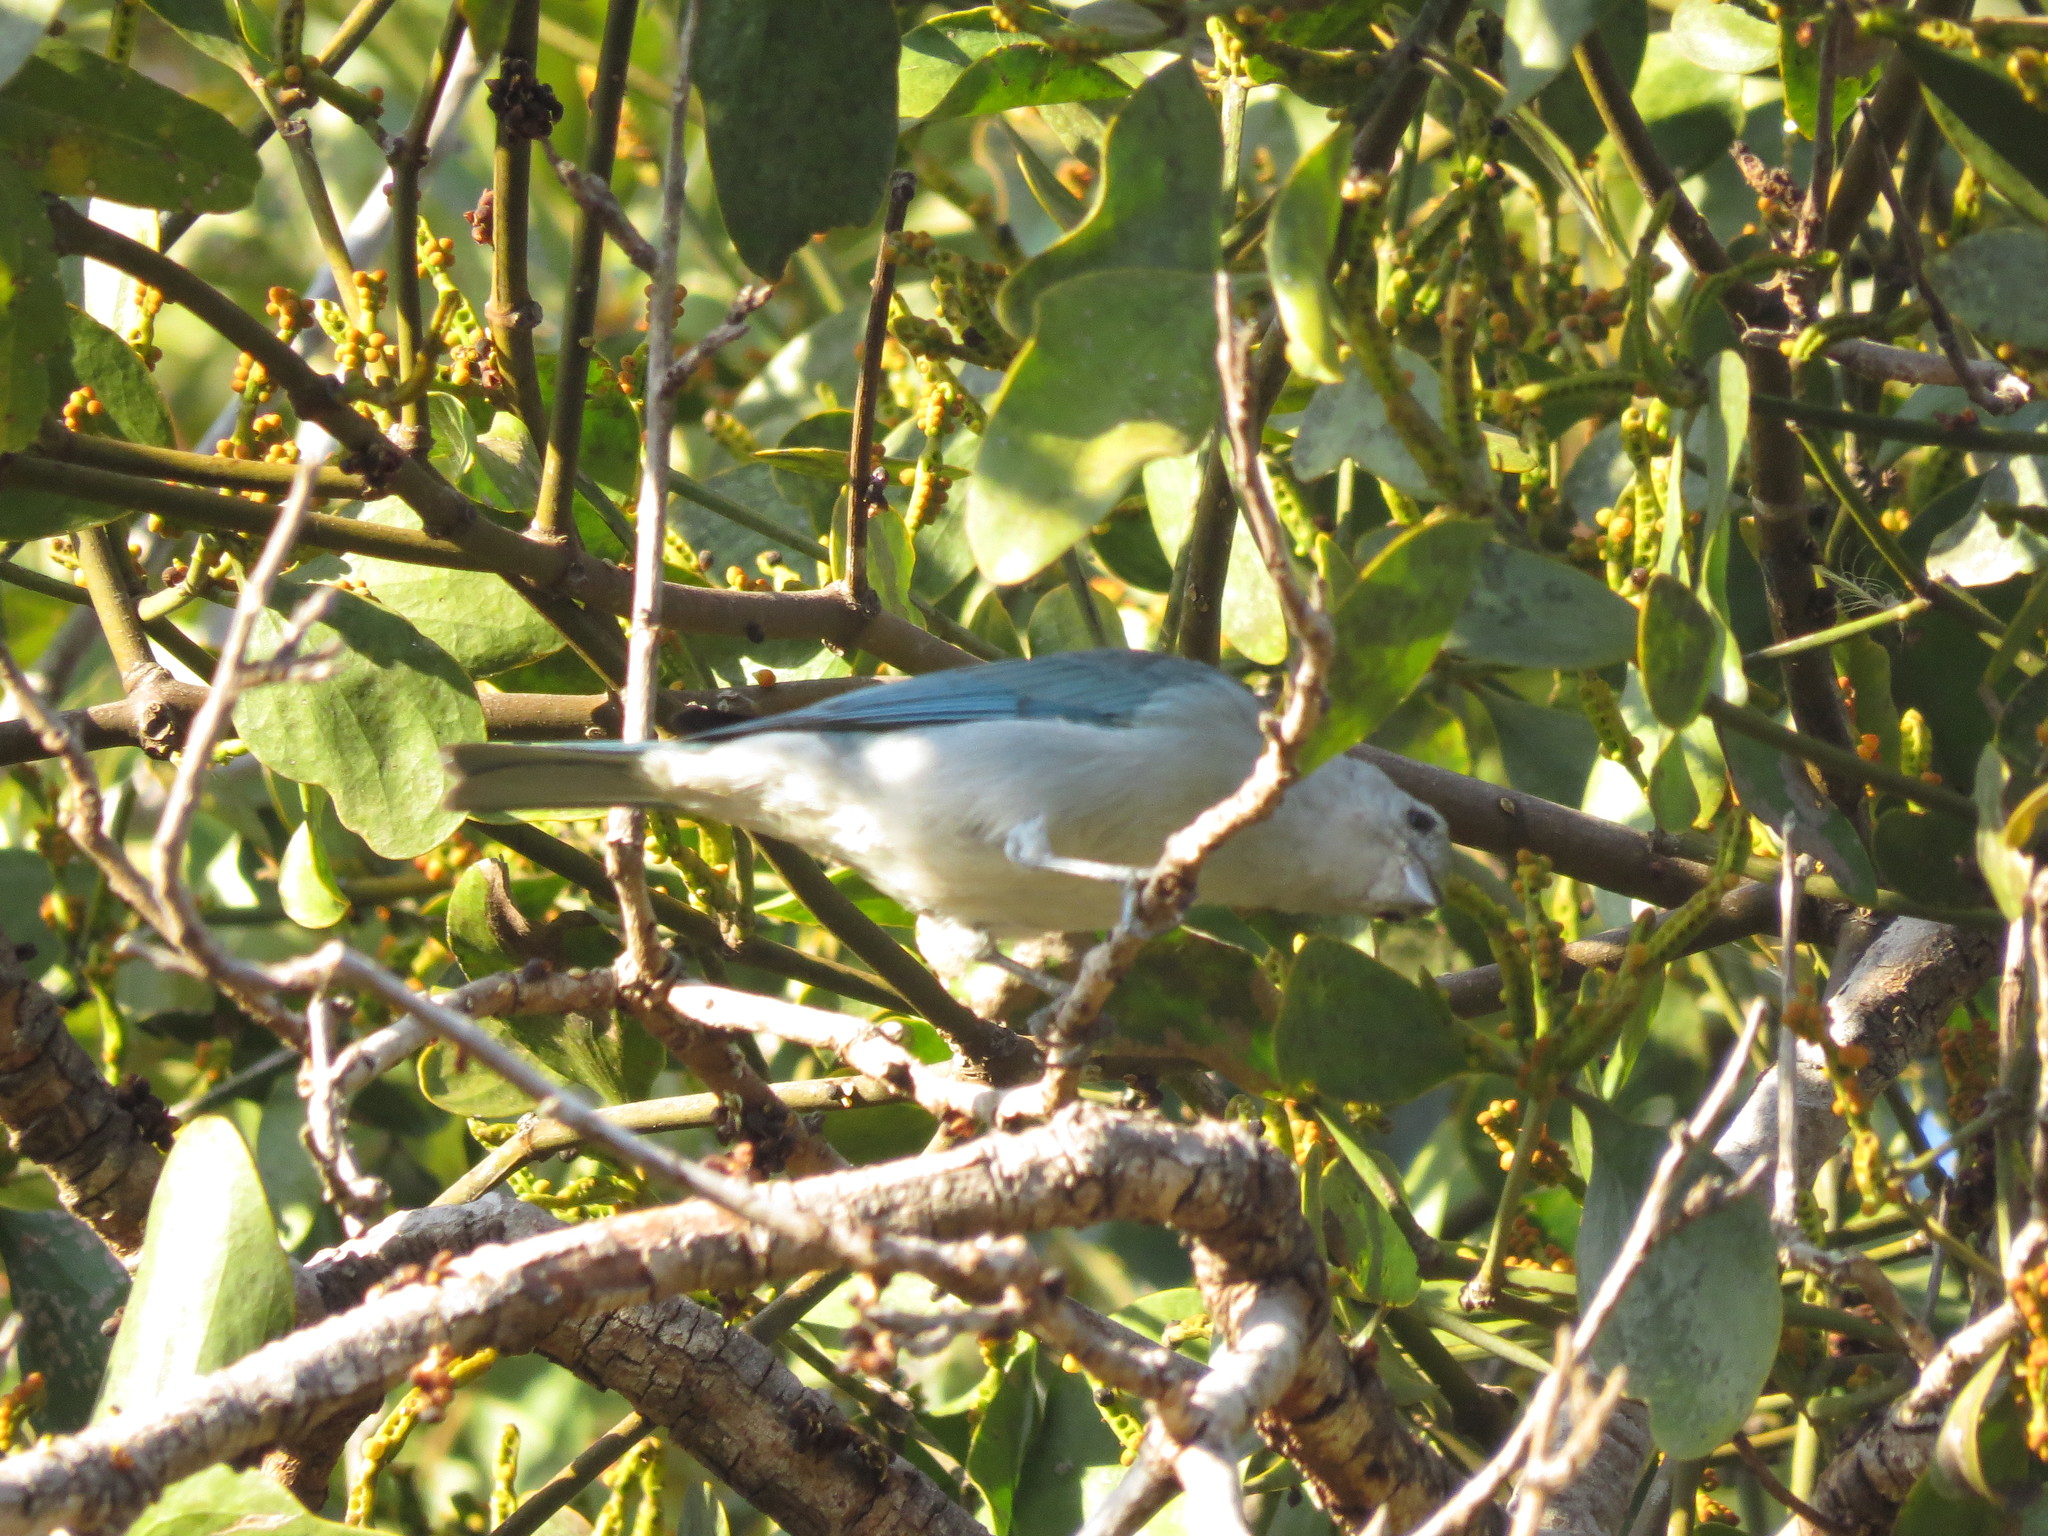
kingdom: Animalia
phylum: Chordata
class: Aves
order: Passeriformes
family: Thraupidae
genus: Thraupis
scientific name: Thraupis sayaca
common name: Sayaca tanager
